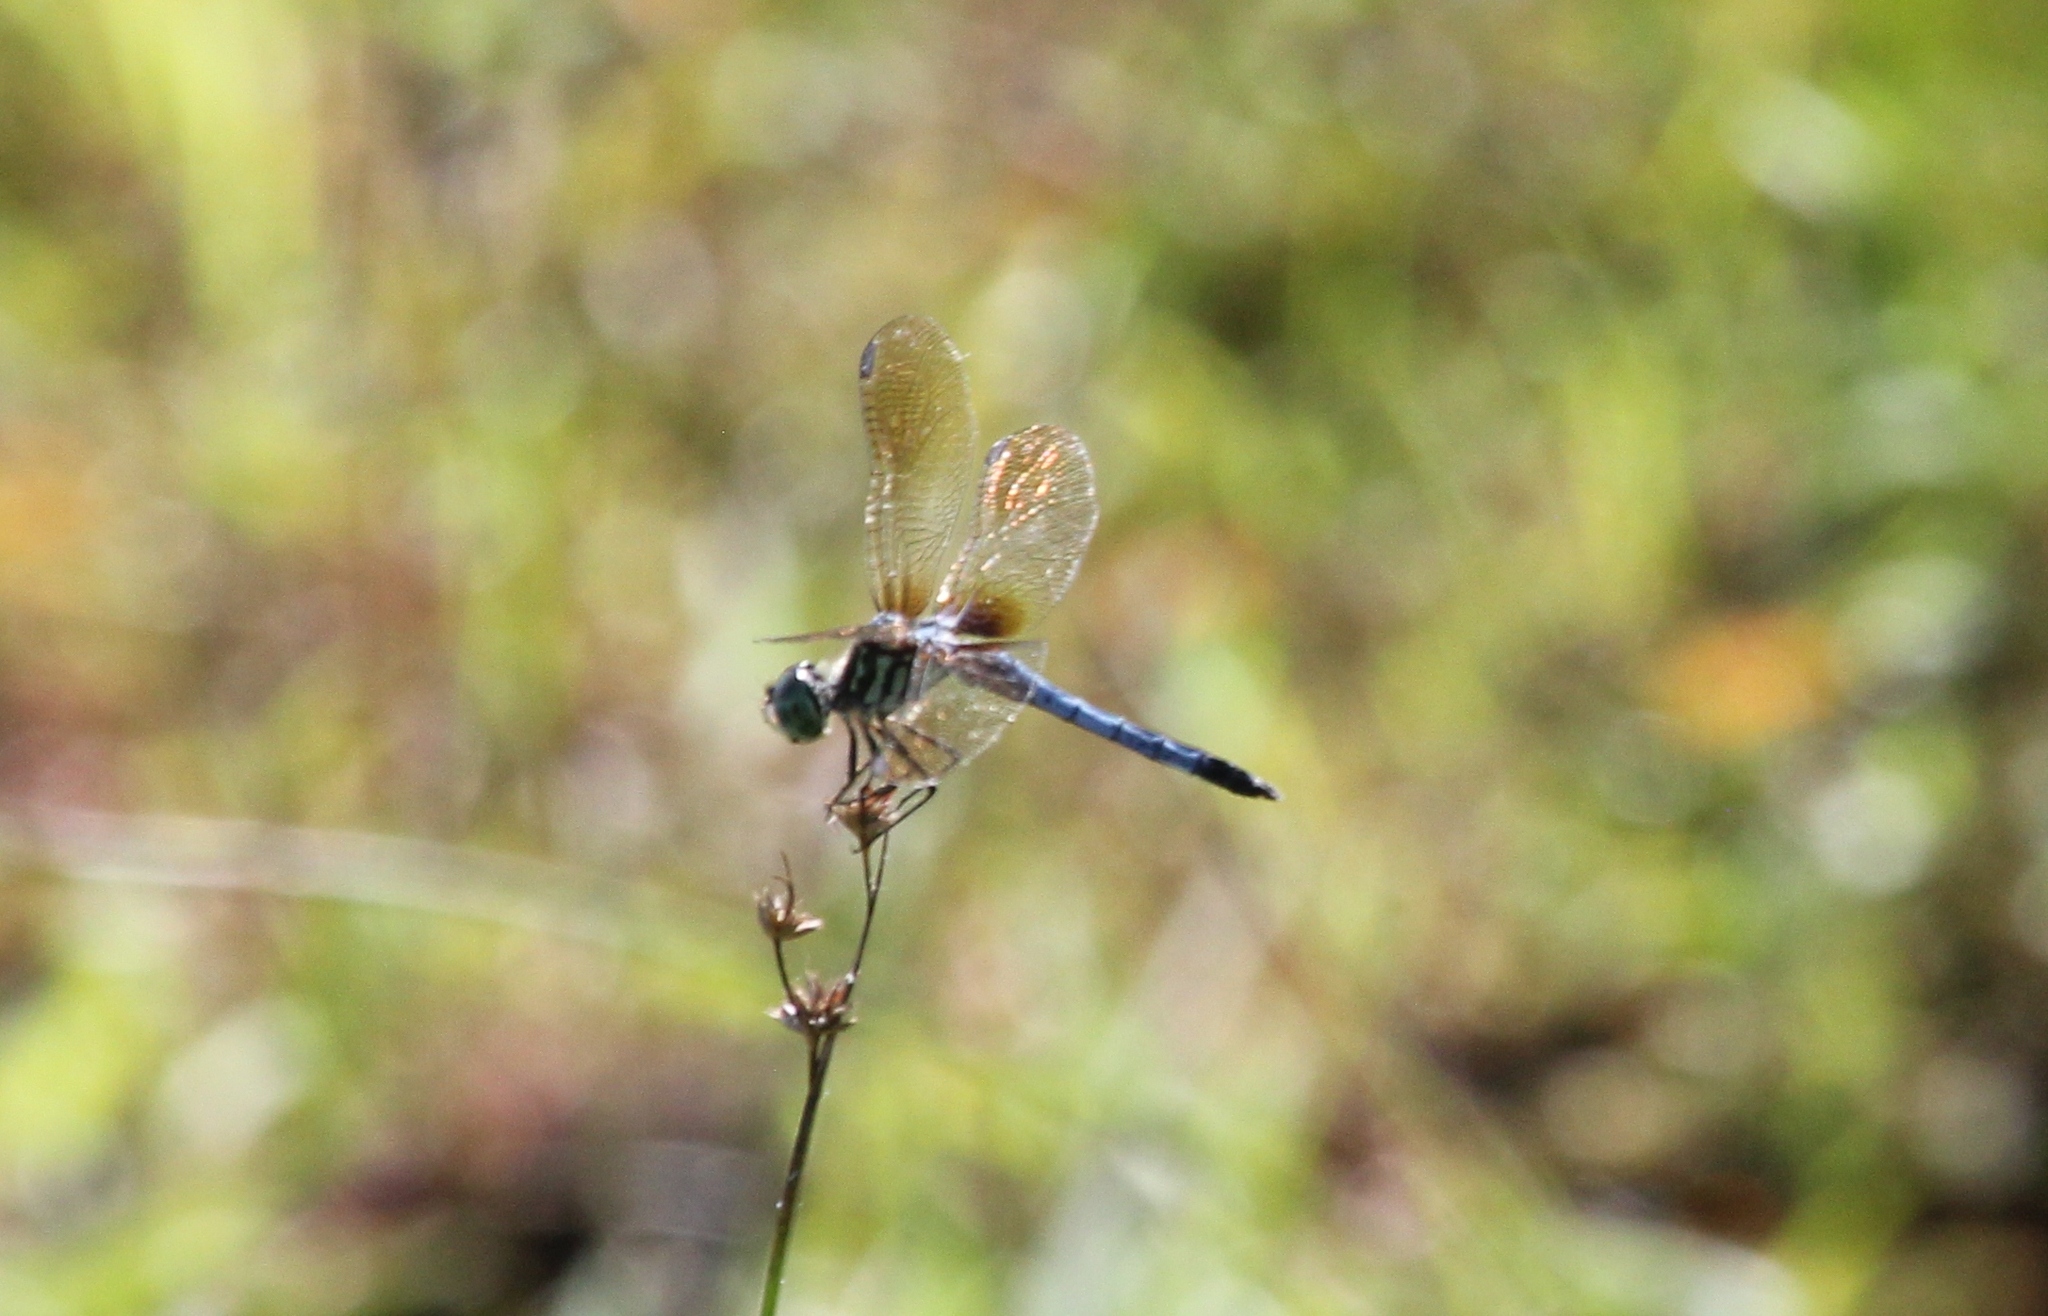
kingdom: Animalia
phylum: Arthropoda
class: Insecta
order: Odonata
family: Libellulidae
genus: Pachydiplax
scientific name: Pachydiplax longipennis
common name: Blue dasher
